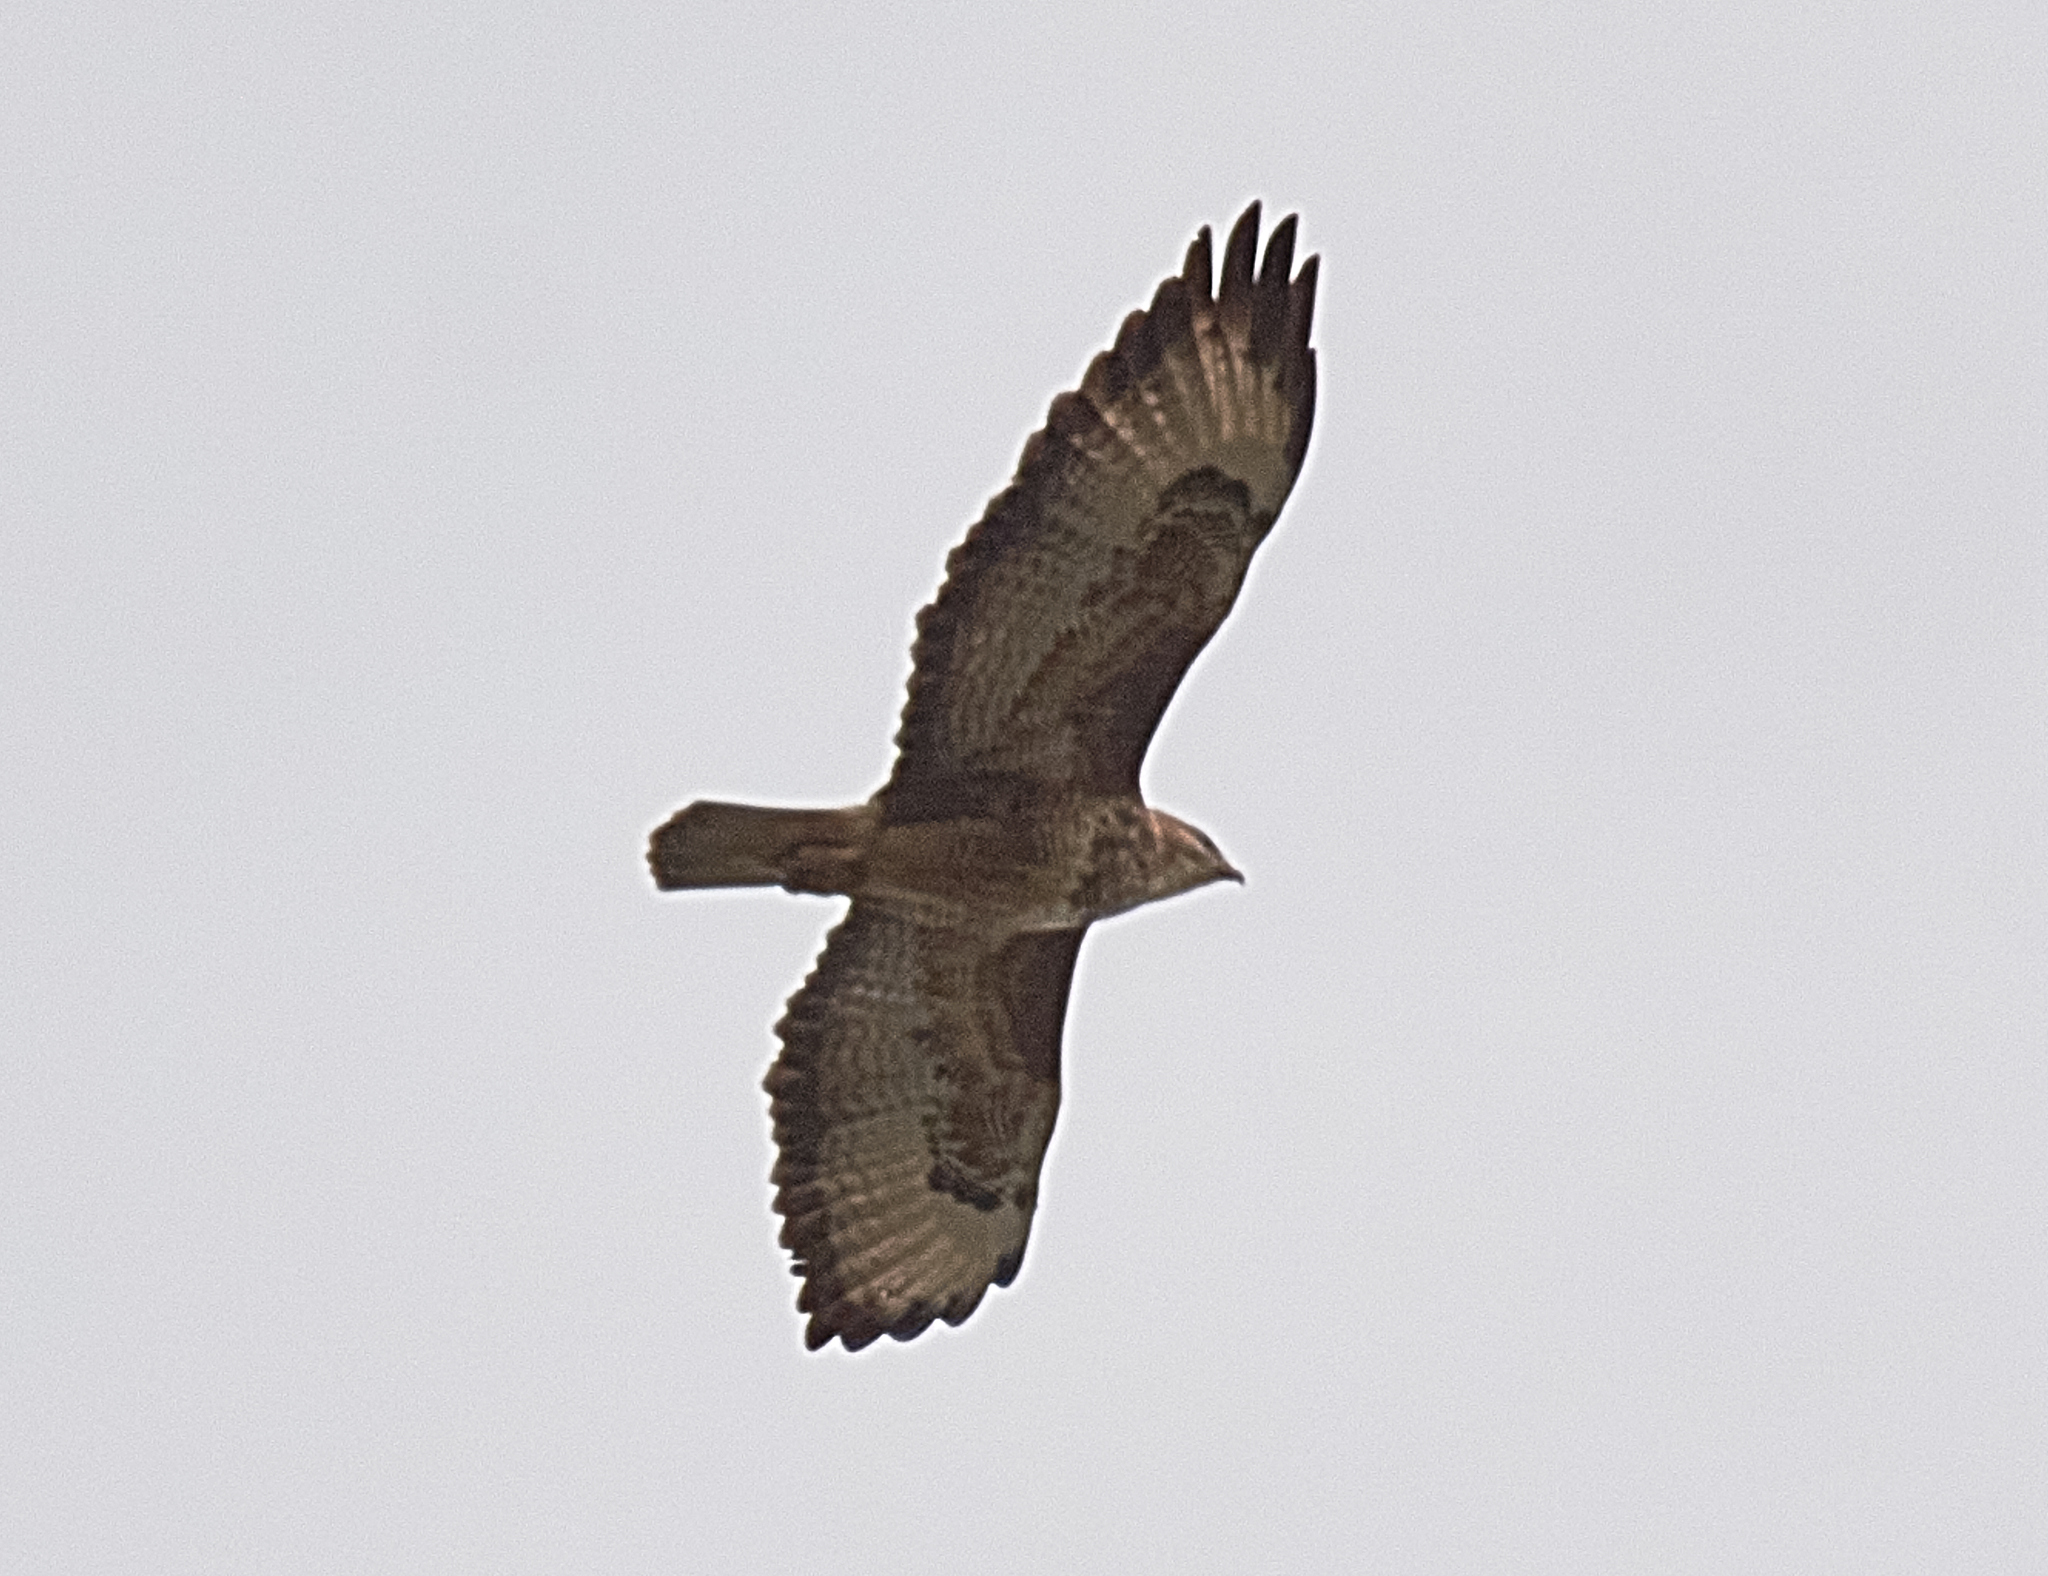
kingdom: Animalia
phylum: Chordata
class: Aves
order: Accipitriformes
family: Accipitridae
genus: Buteo
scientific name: Buteo buteo
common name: Common buzzard
